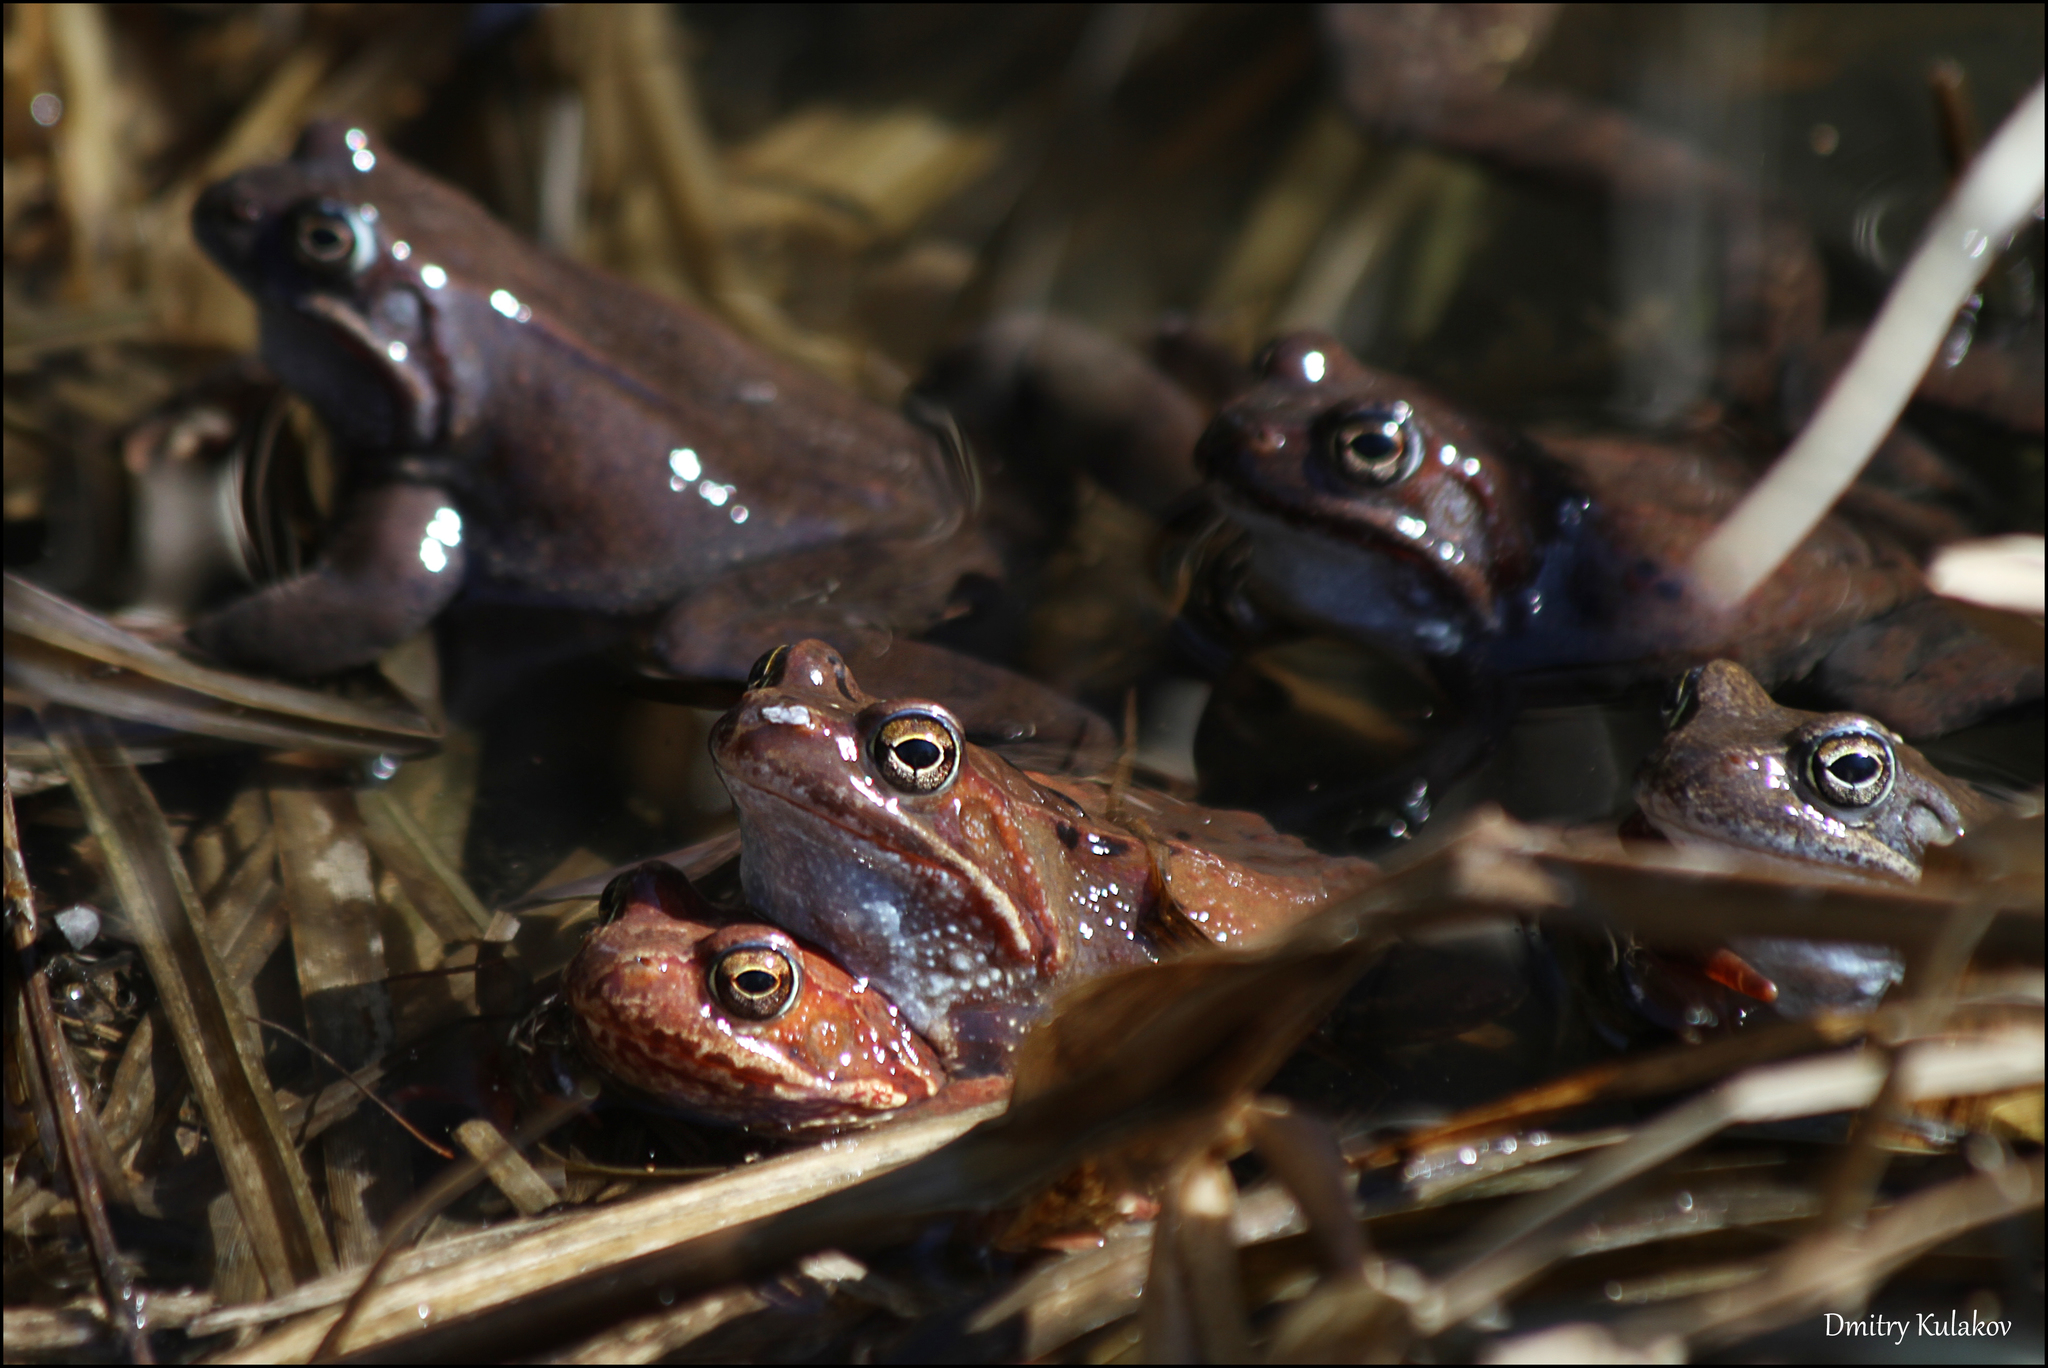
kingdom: Animalia
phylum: Chordata
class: Amphibia
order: Anura
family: Ranidae
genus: Rana
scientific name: Rana temporaria
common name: Common frog
